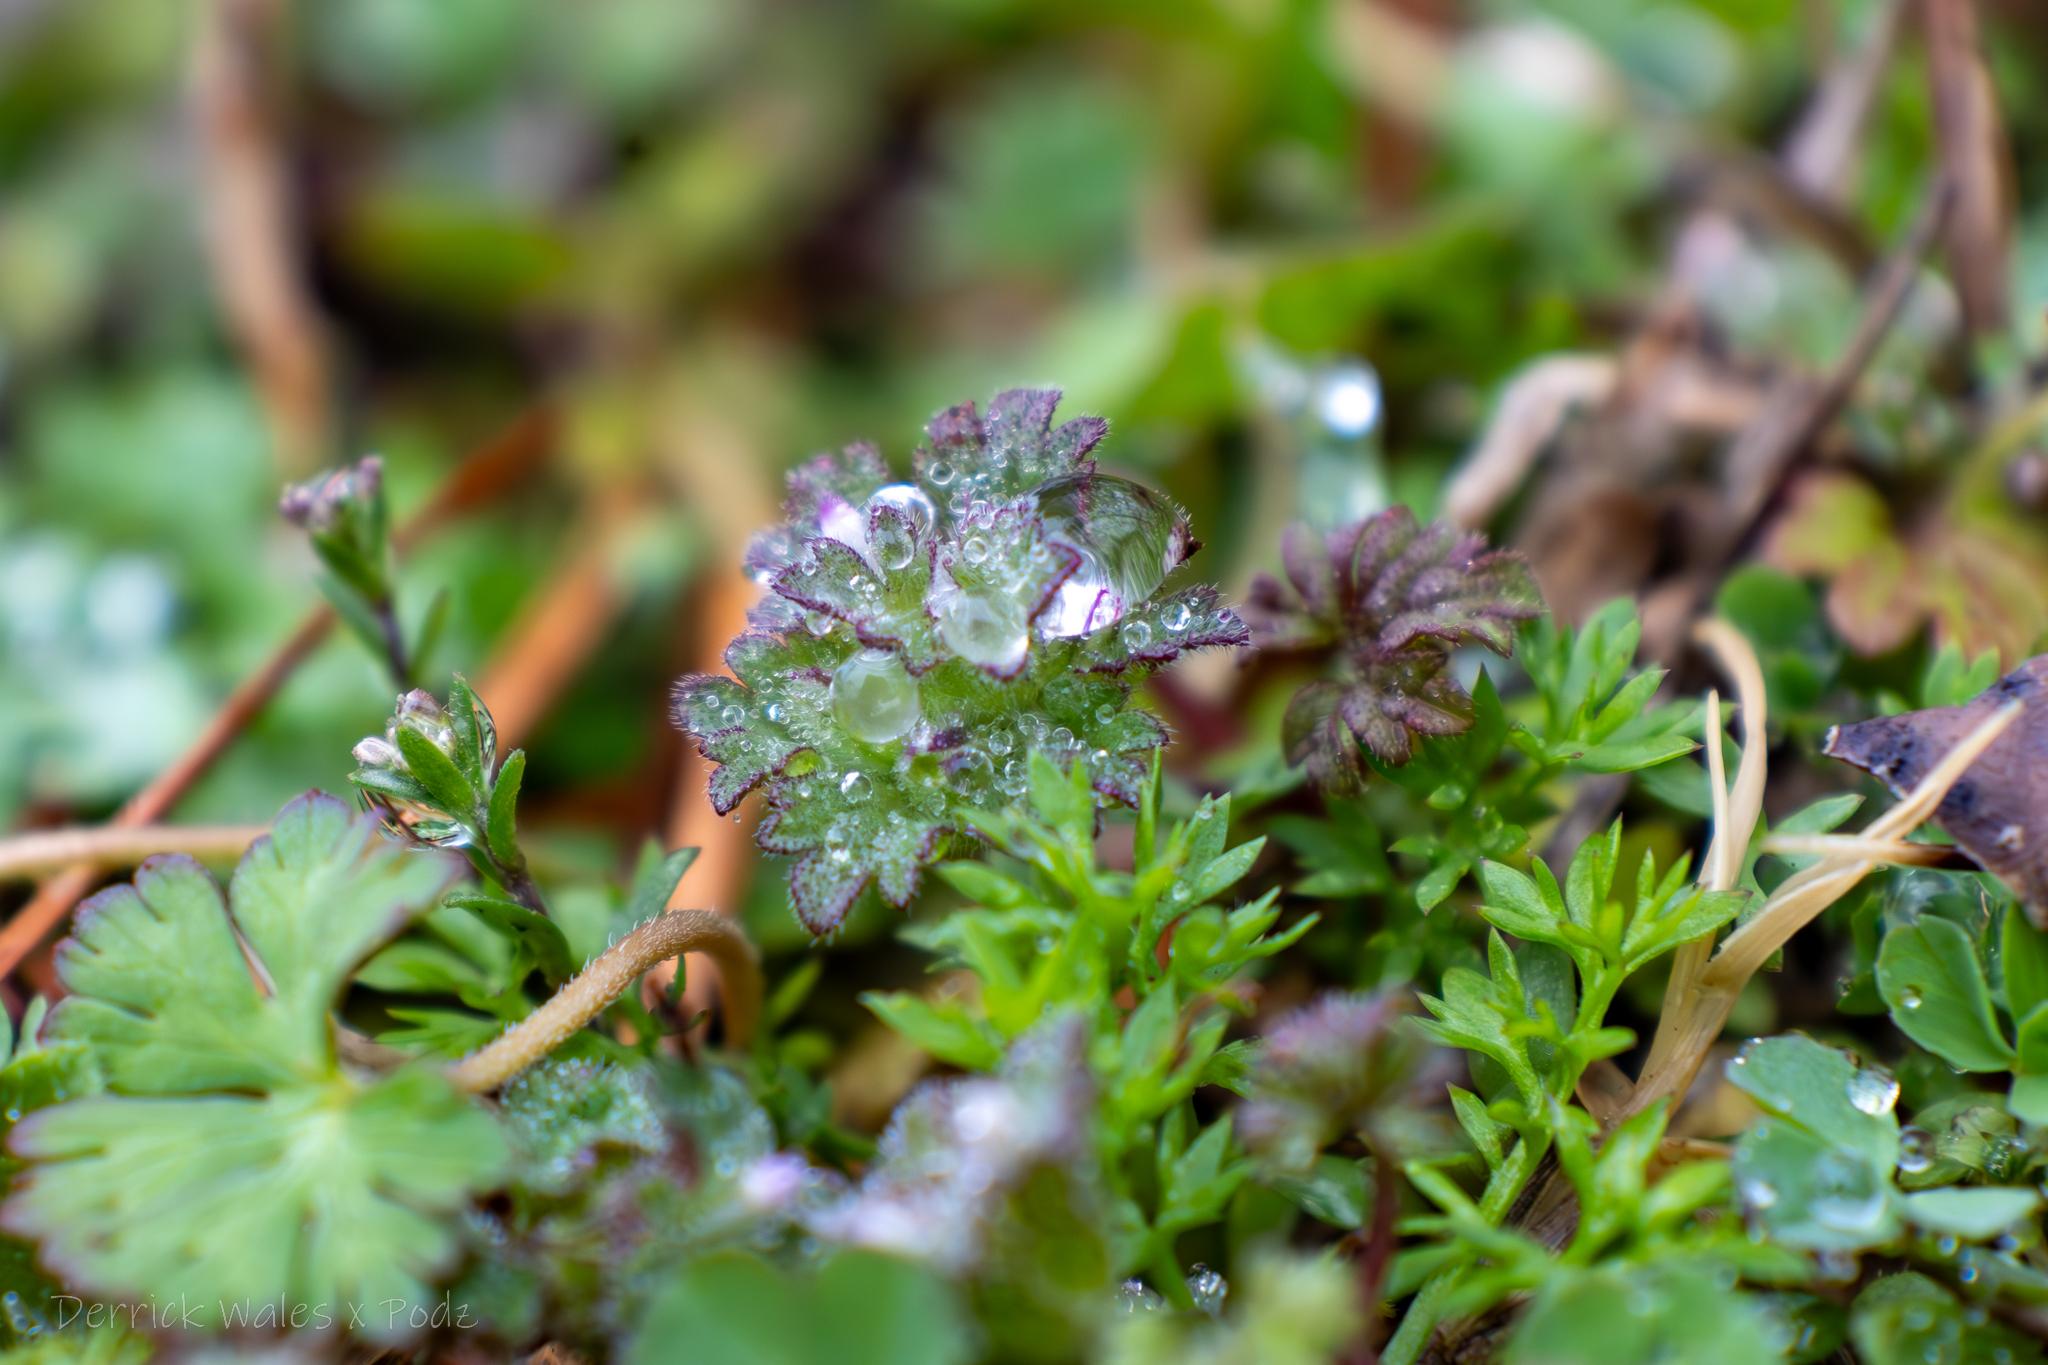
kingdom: Plantae
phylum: Tracheophyta
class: Magnoliopsida
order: Lamiales
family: Lamiaceae
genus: Lamium
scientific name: Lamium amplexicaule
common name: Henbit dead-nettle
